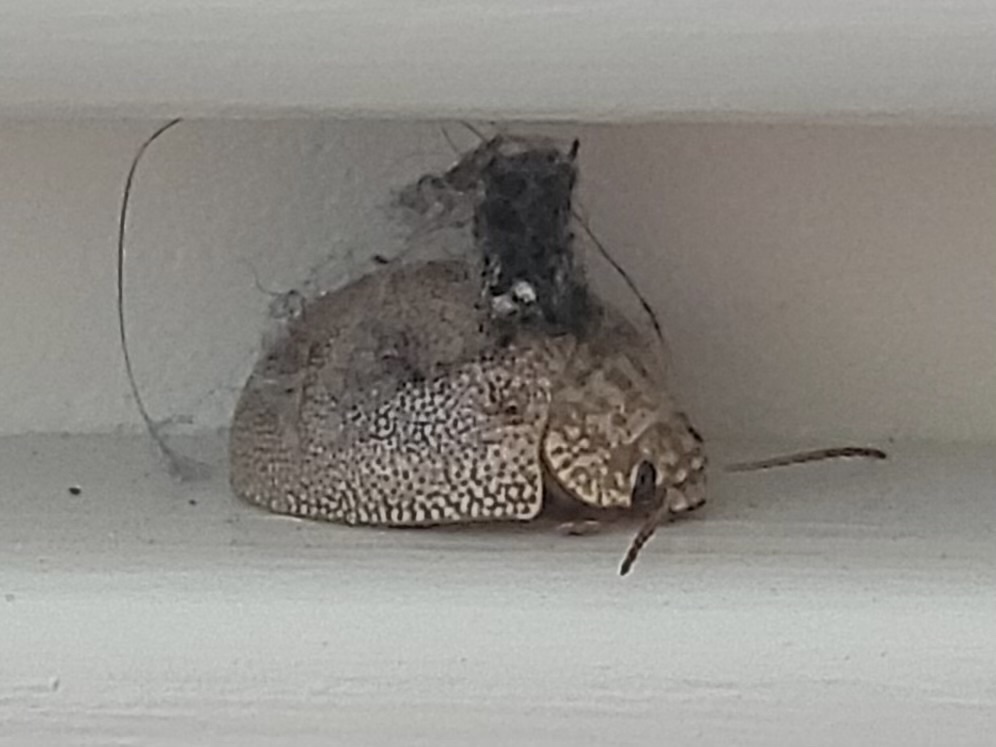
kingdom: Animalia
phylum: Arthropoda
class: Insecta
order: Coleoptera
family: Chrysomelidae
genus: Paropsis
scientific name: Paropsis
